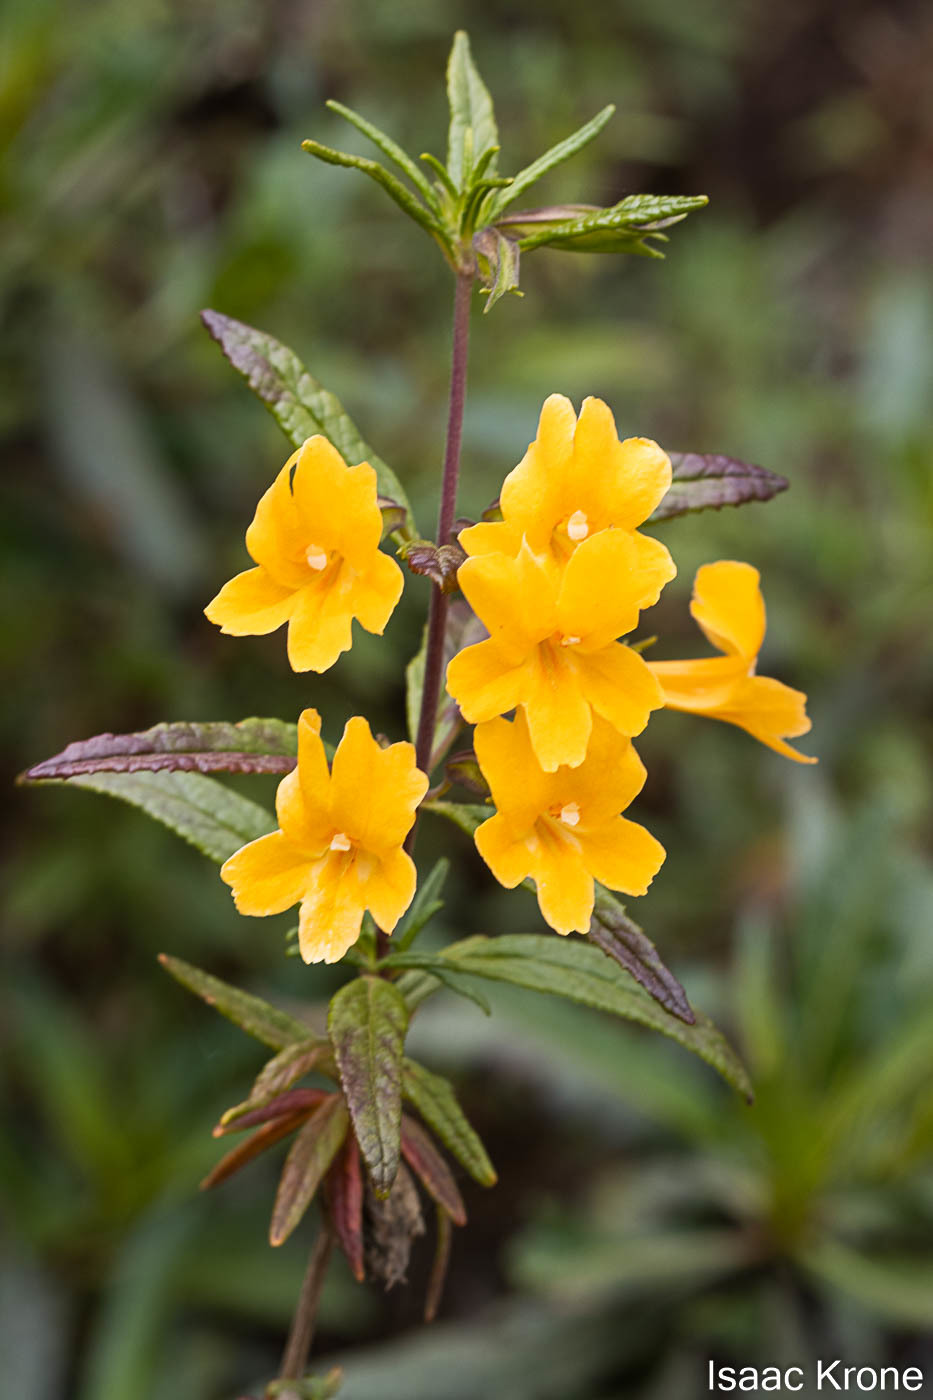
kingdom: Plantae
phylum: Tracheophyta
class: Magnoliopsida
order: Lamiales
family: Phrymaceae
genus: Diplacus
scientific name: Diplacus aurantiacus
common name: Bush monkey-flower
